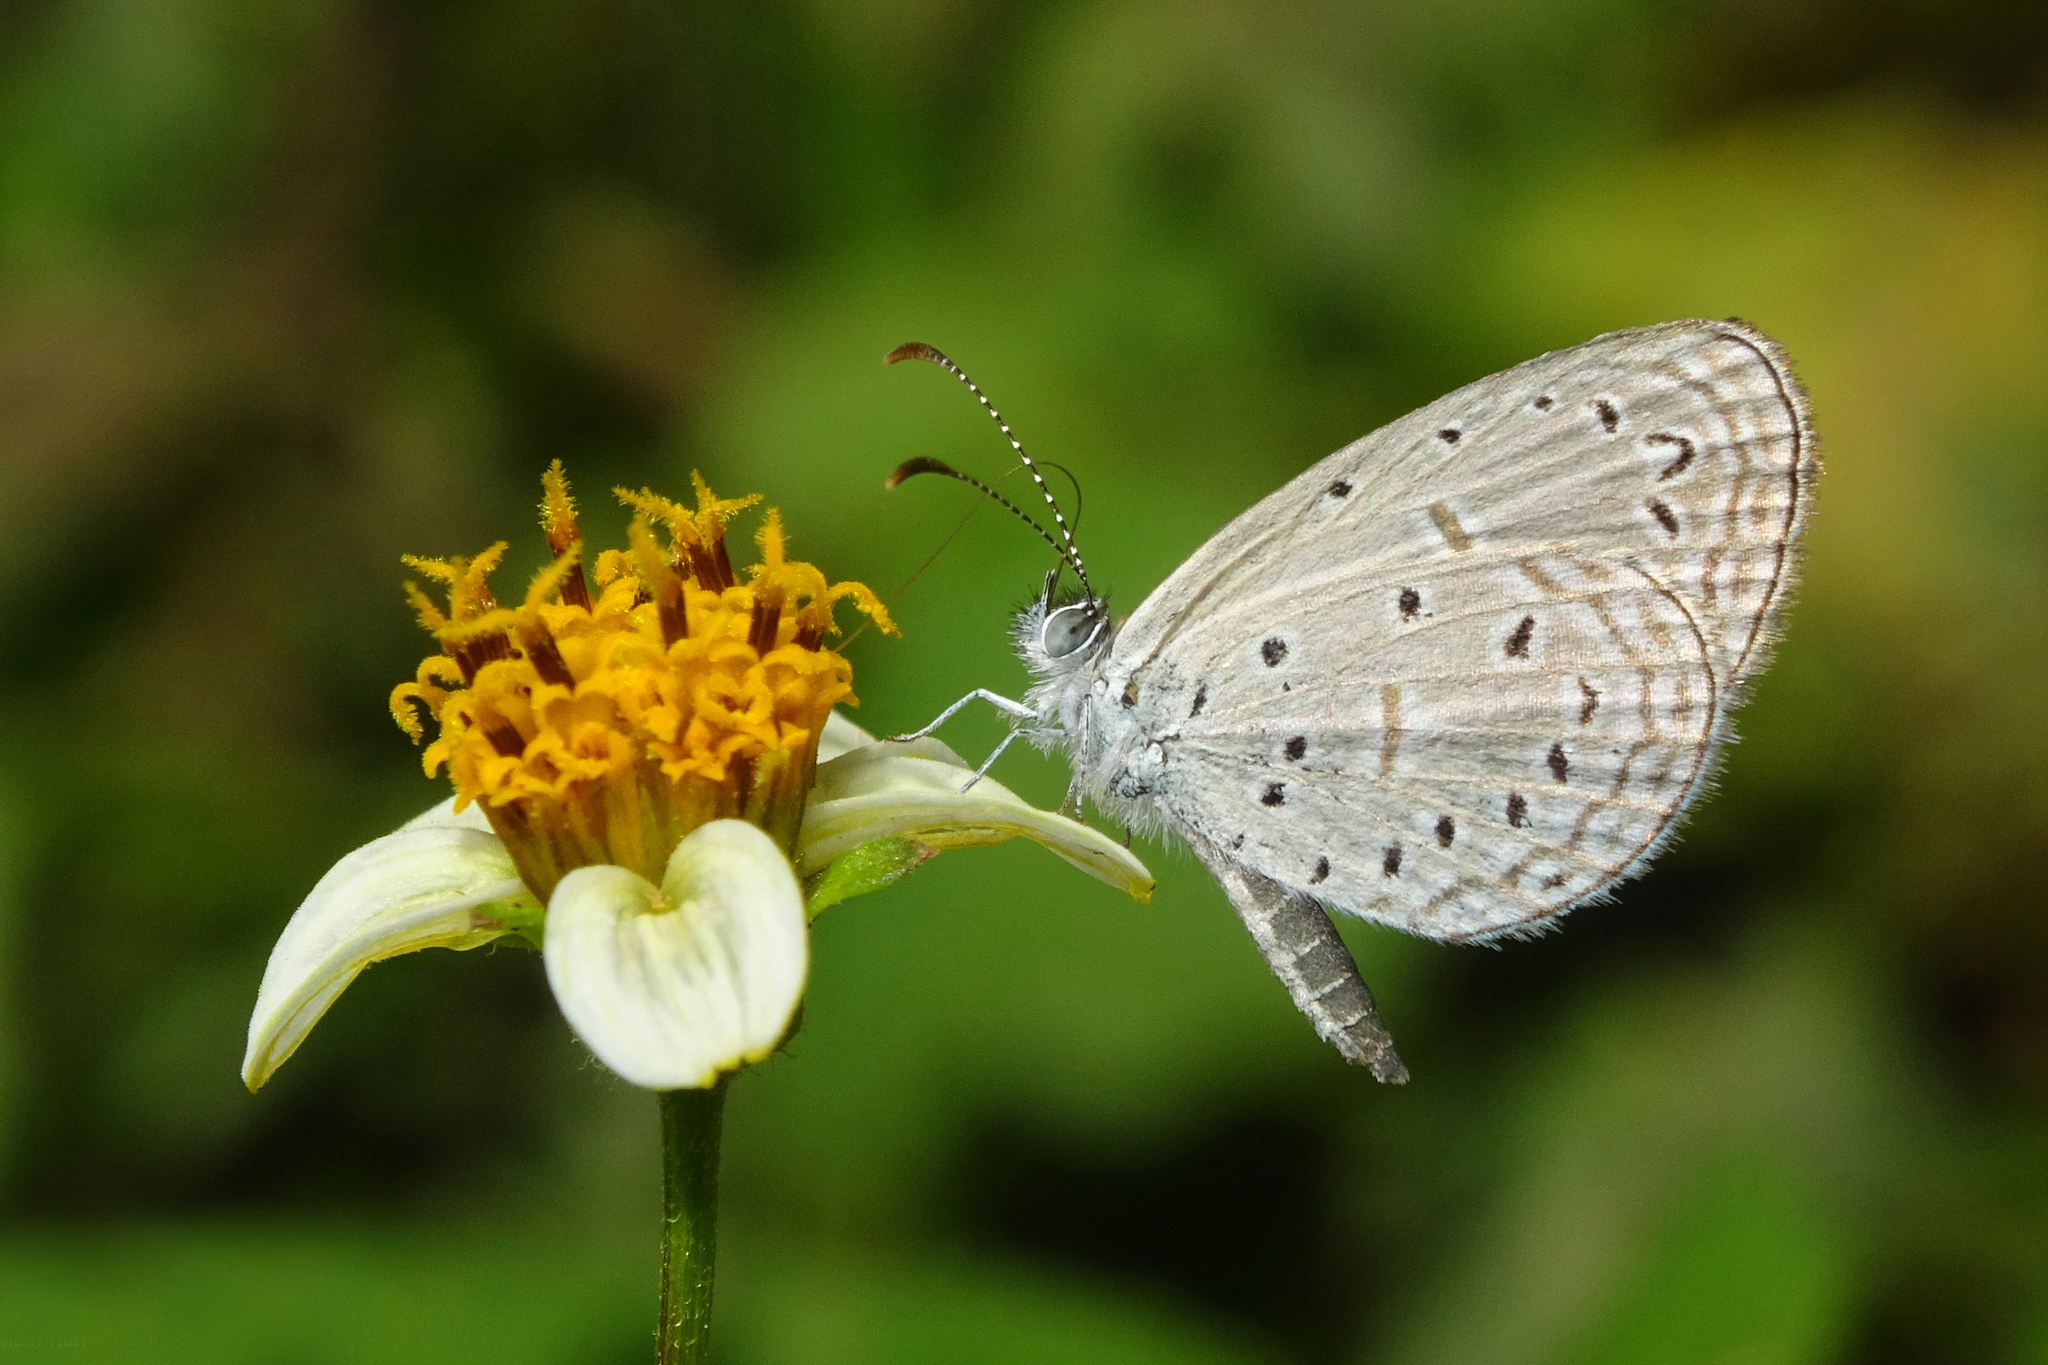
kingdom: Animalia
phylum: Arthropoda
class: Insecta
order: Lepidoptera
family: Lycaenidae
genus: Zizula
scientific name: Zizula hylax
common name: Gaika blue
